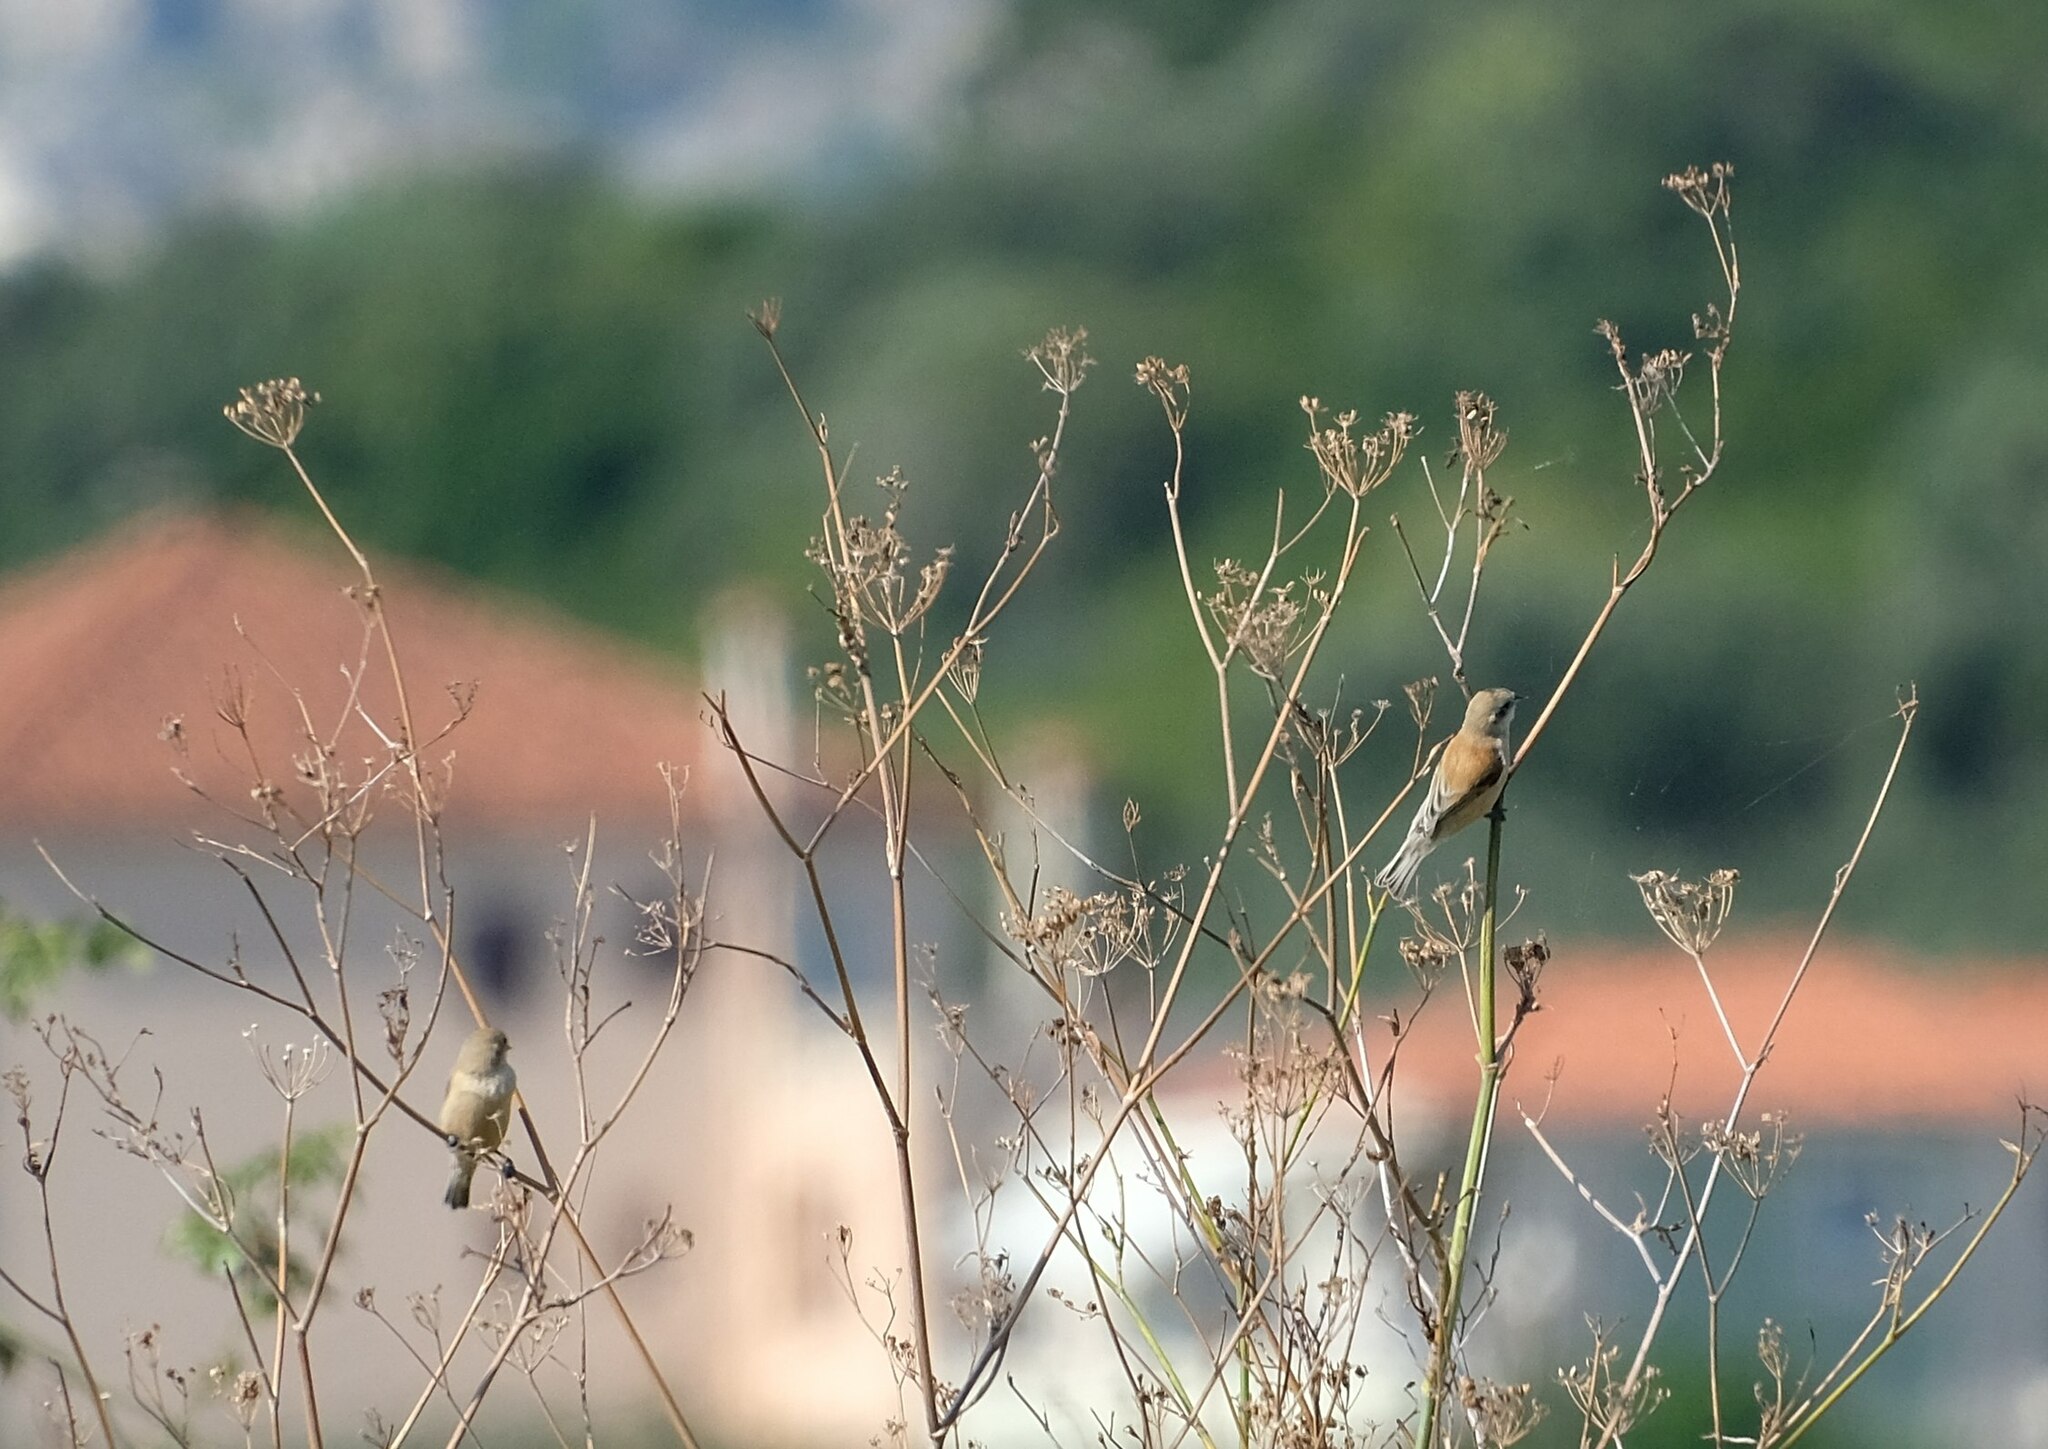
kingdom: Animalia
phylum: Chordata
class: Aves
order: Passeriformes
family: Remizidae
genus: Remiz
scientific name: Remiz pendulinus
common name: Eurasian penduline tit
